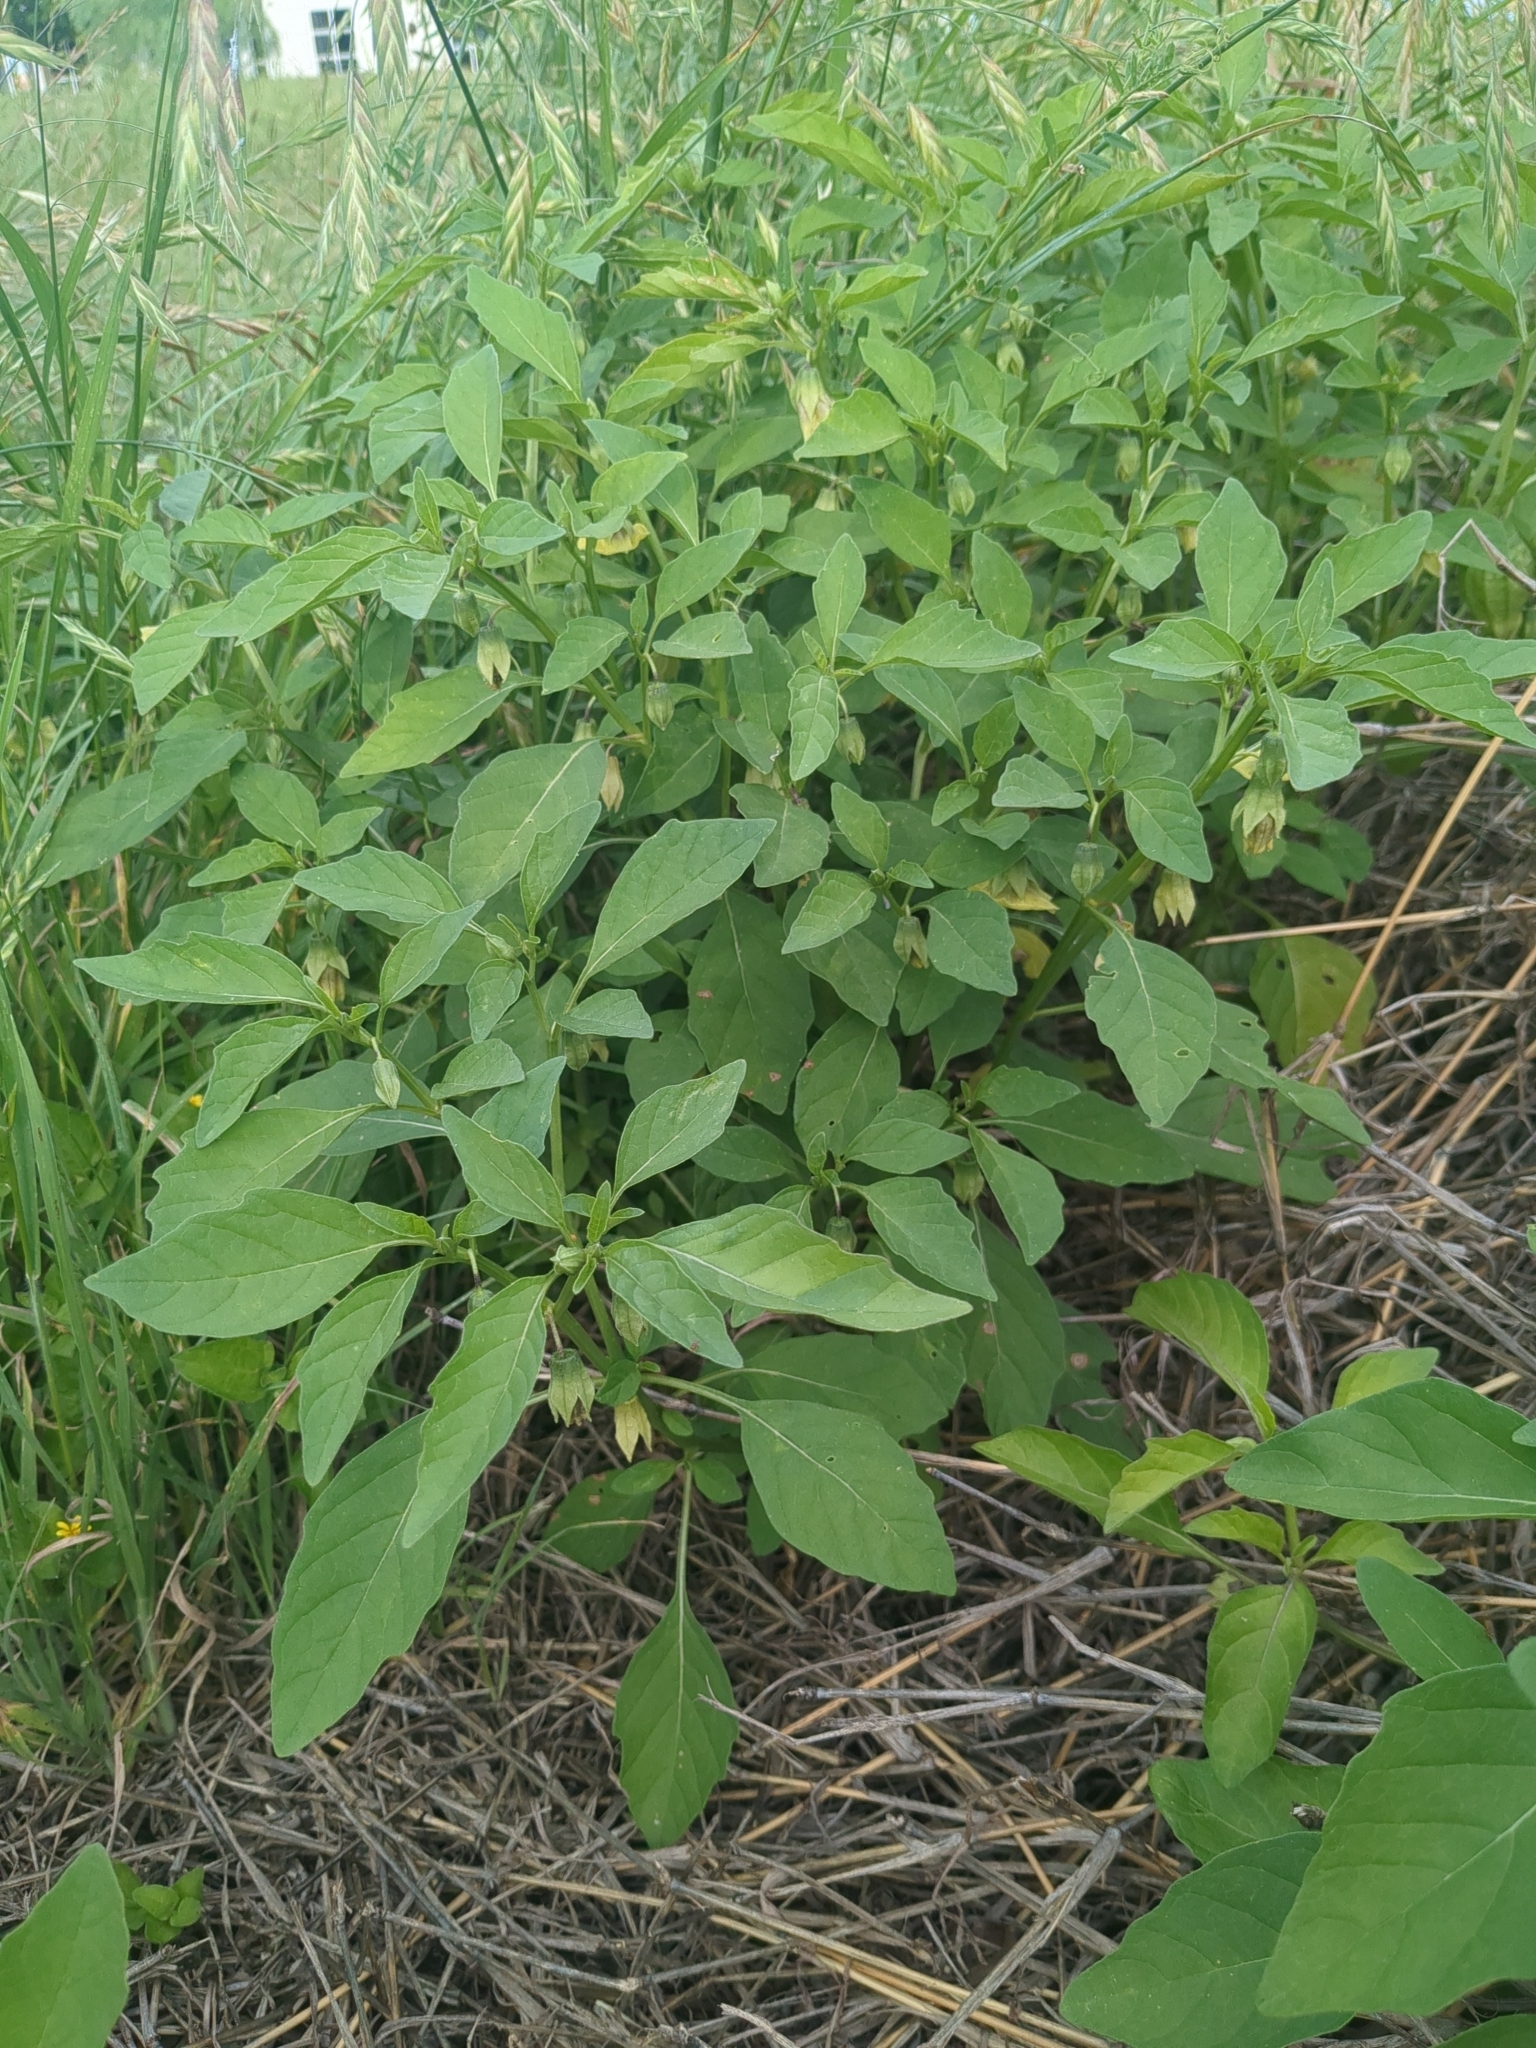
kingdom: Plantae
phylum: Tracheophyta
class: Magnoliopsida
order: Solanales
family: Solanaceae
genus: Physalis
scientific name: Physalis longifolia
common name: Common ground-cherry
